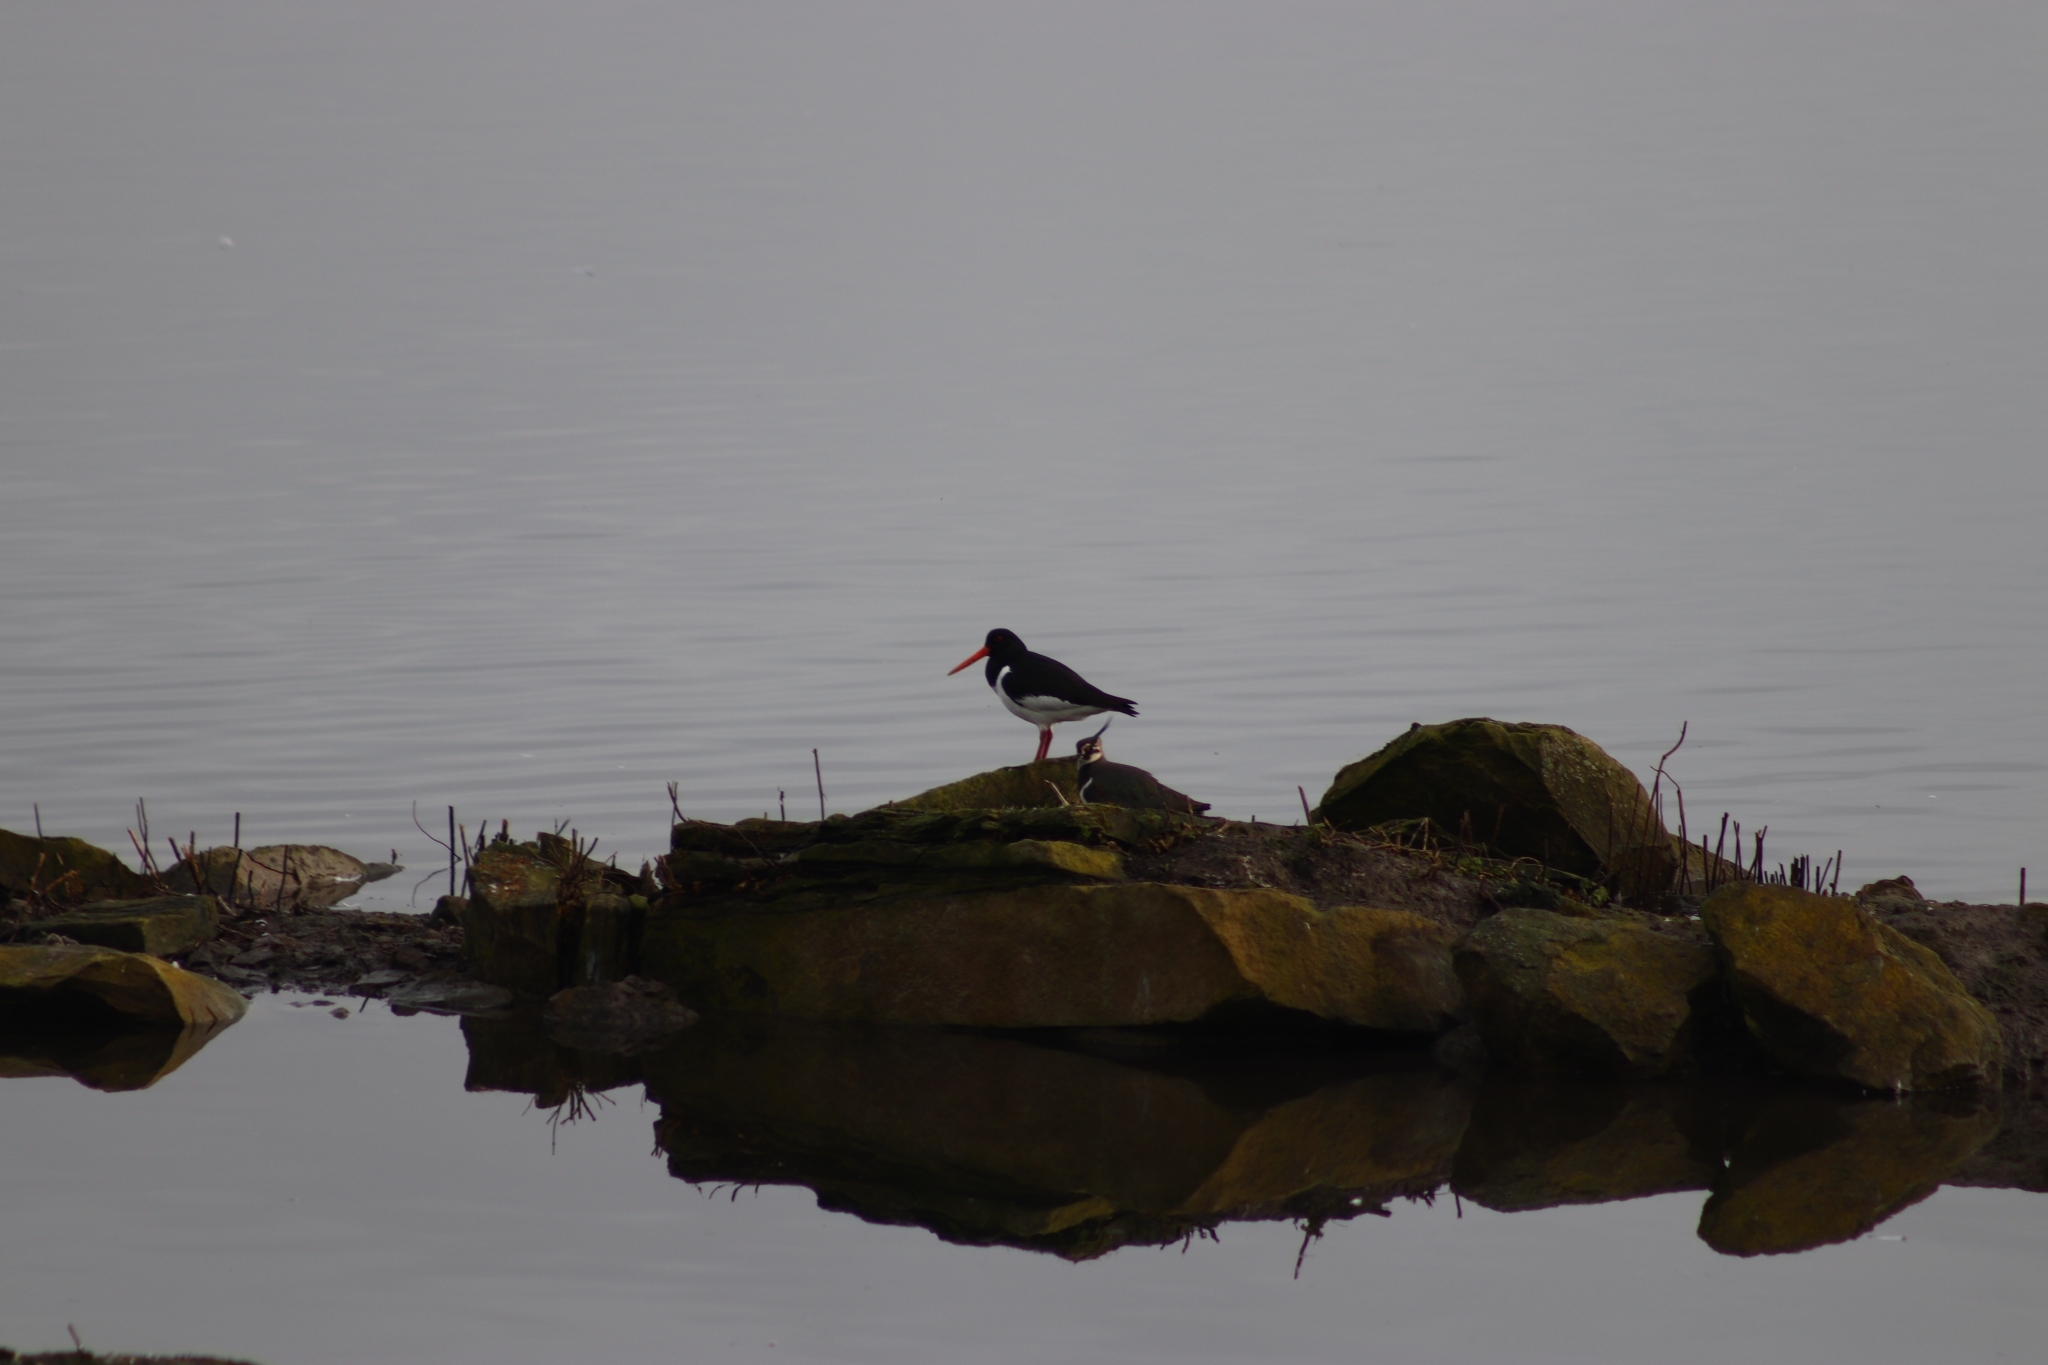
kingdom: Animalia
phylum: Chordata
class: Aves
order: Charadriiformes
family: Haematopodidae
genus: Haematopus
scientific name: Haematopus ostralegus
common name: Eurasian oystercatcher
